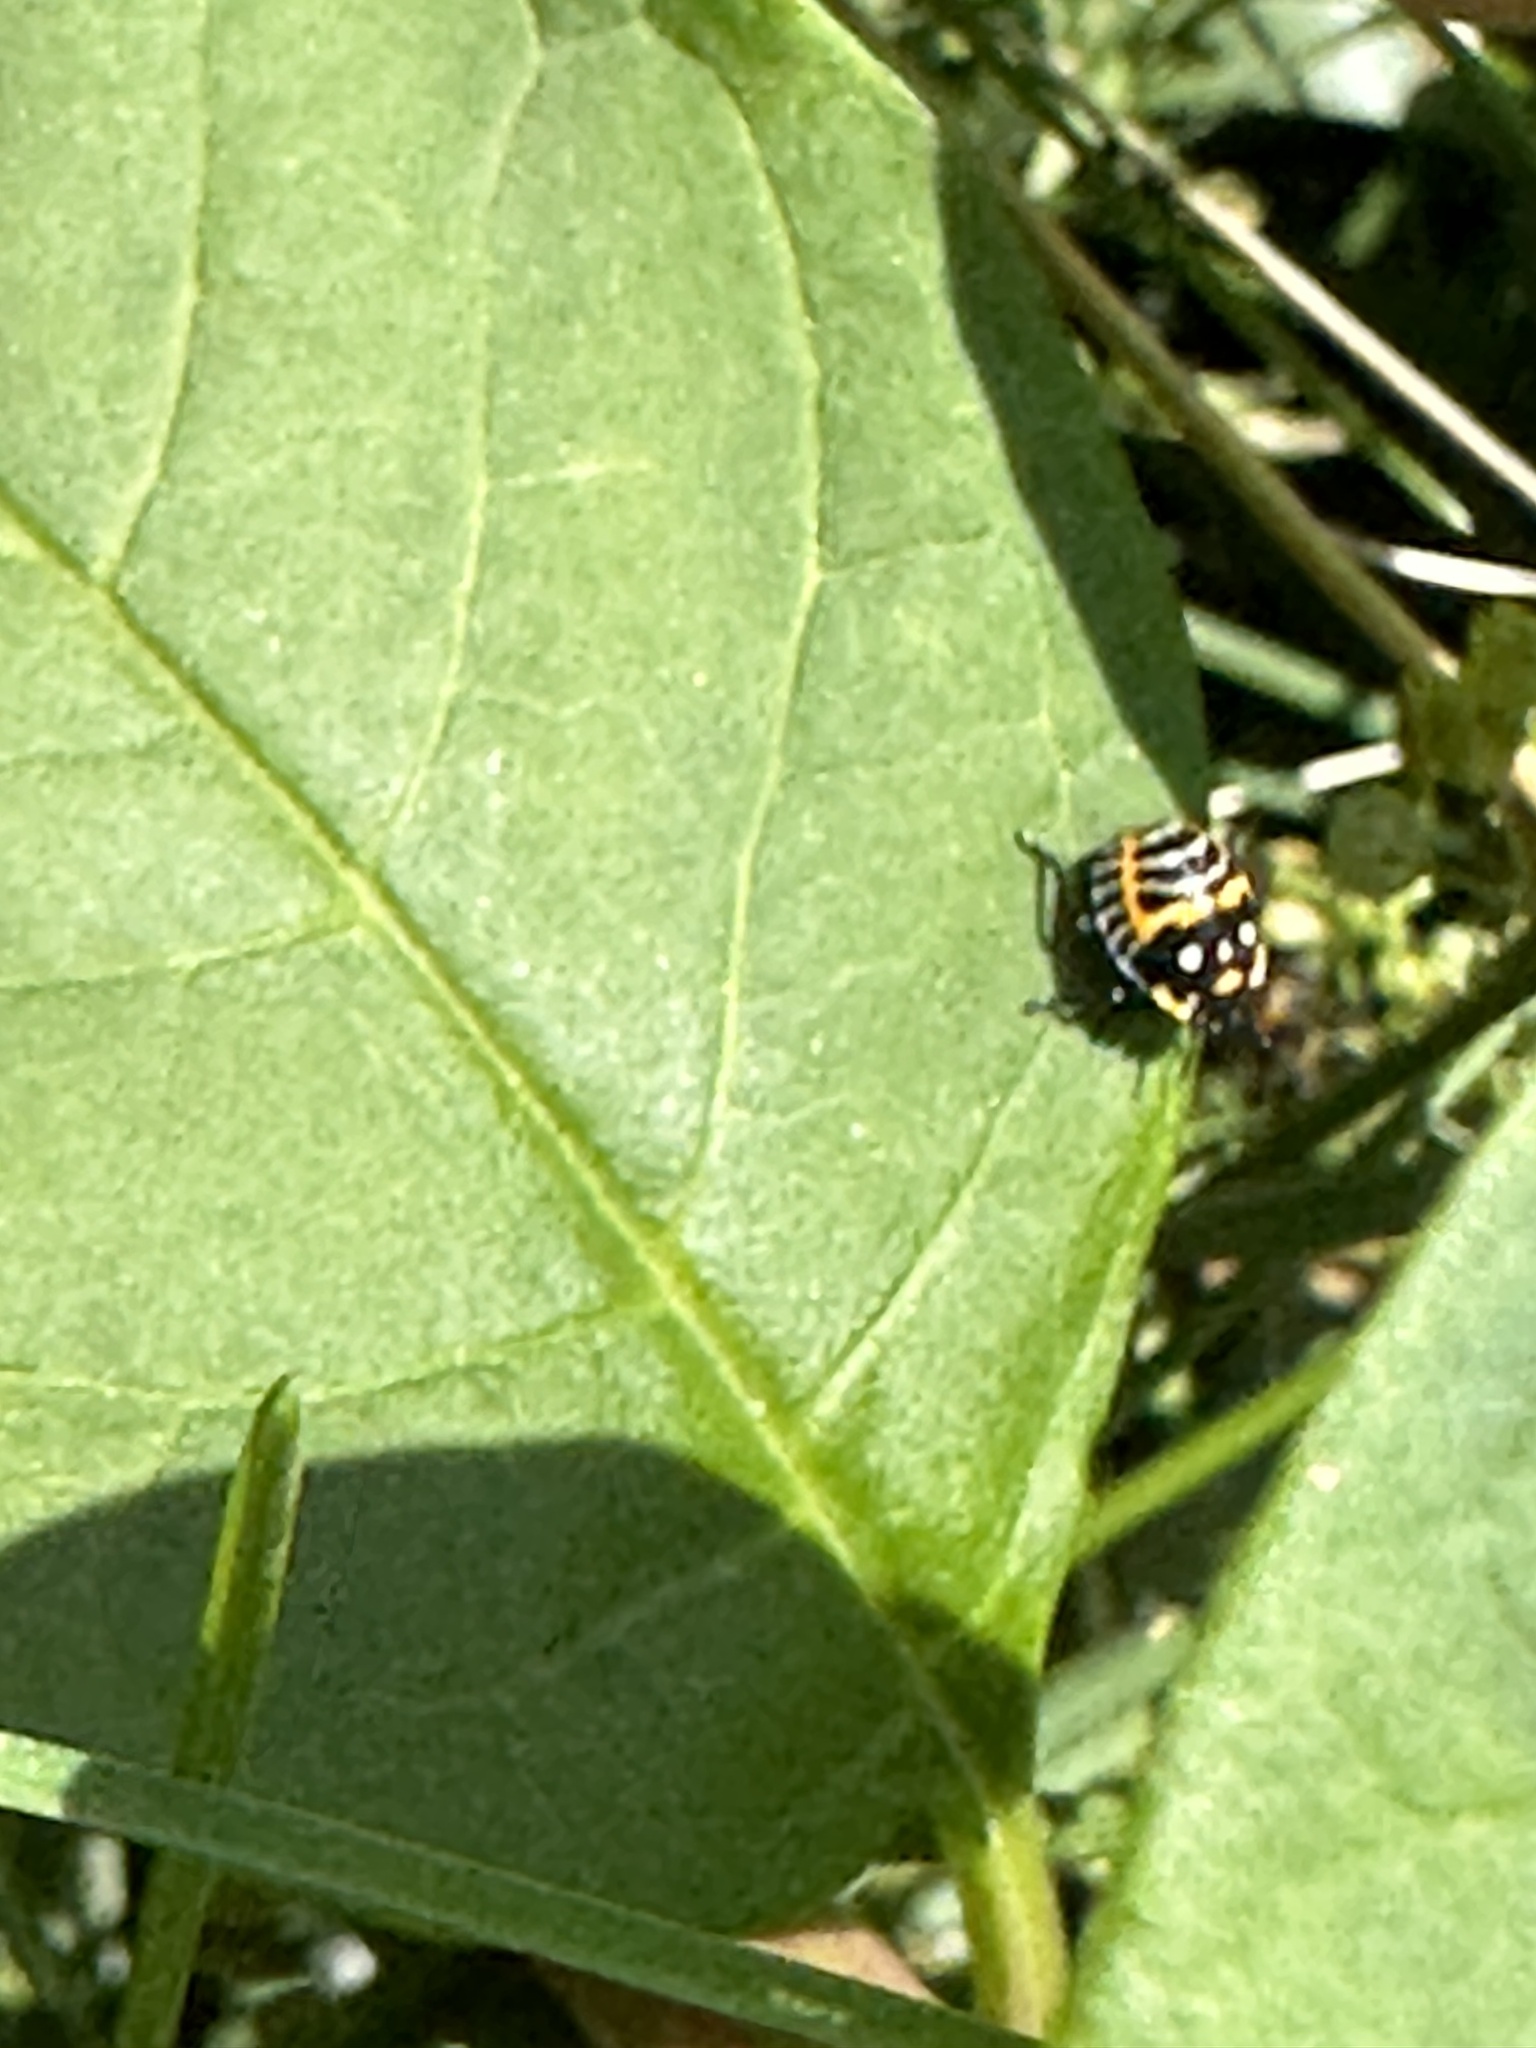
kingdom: Animalia
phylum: Arthropoda
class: Insecta
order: Hemiptera
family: Pentatomidae
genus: Murgantia
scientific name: Murgantia histrionica
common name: Harlequin bug
